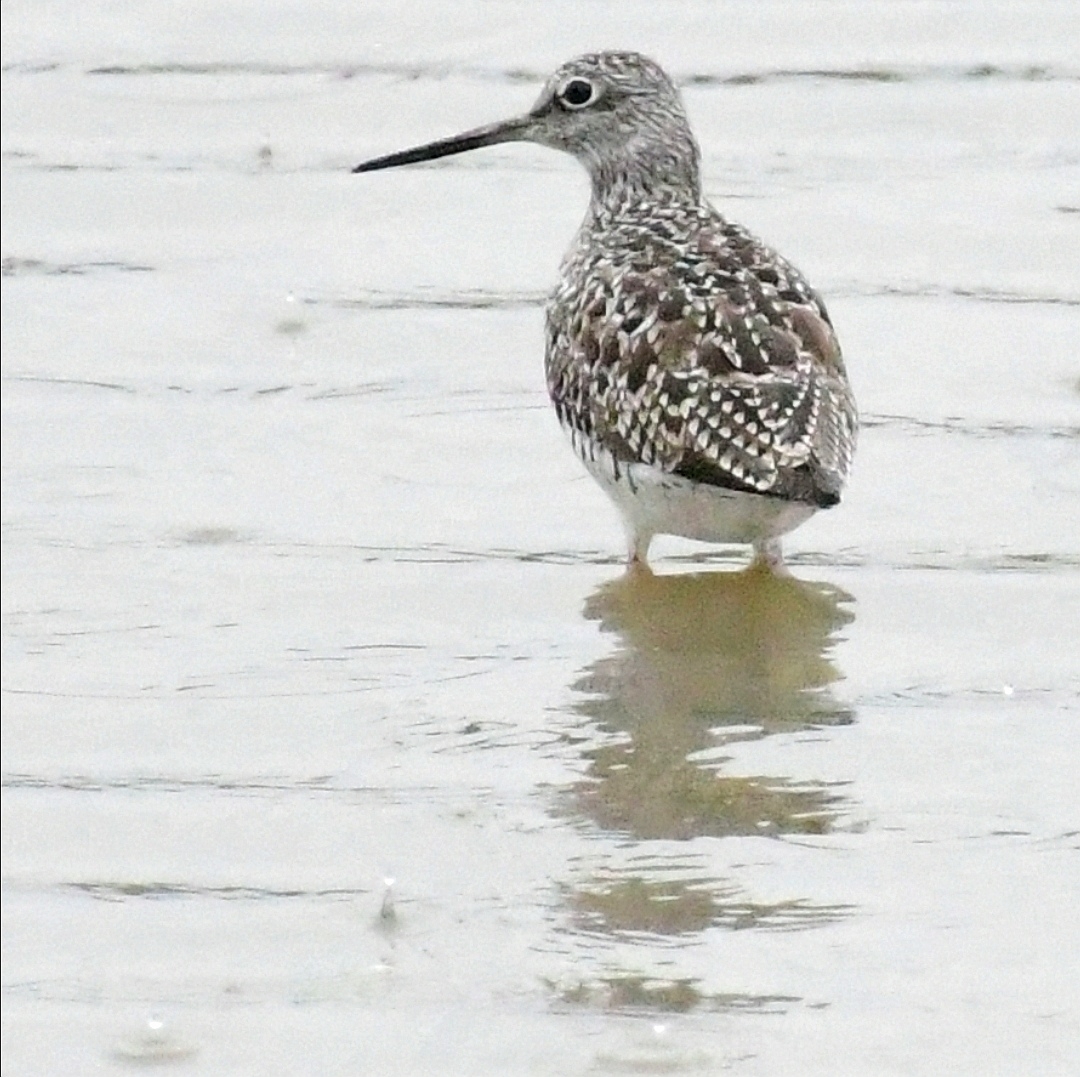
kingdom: Animalia
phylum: Chordata
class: Aves
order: Charadriiformes
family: Scolopacidae
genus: Tringa
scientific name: Tringa melanoleuca
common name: Greater yellowlegs
